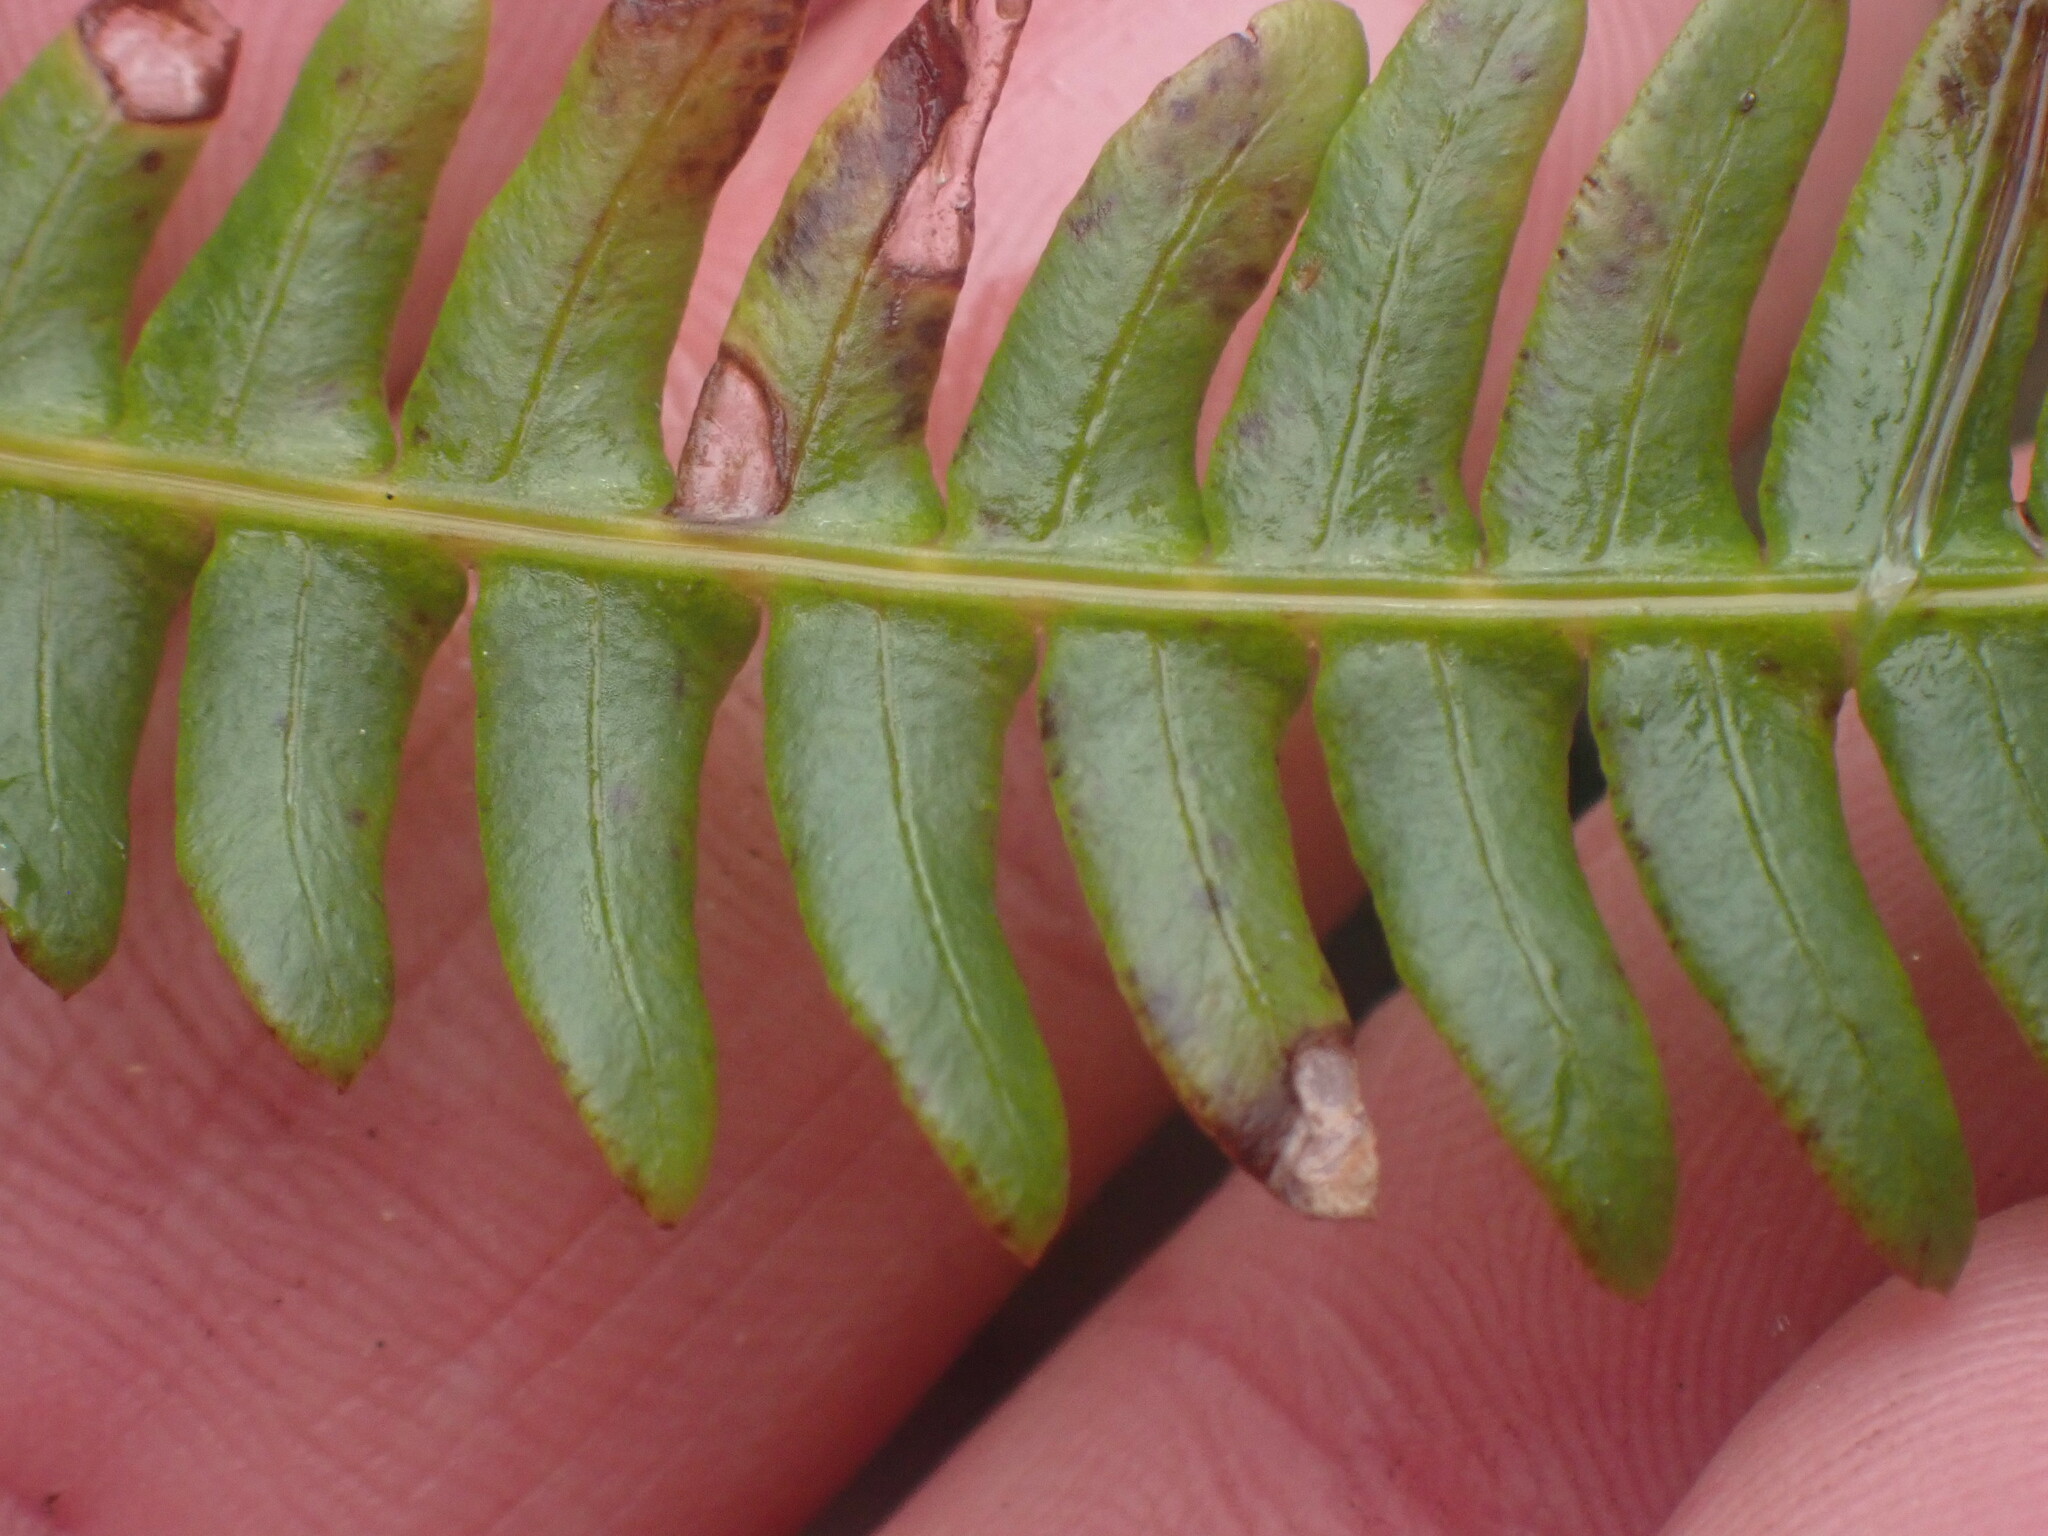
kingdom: Plantae
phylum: Tracheophyta
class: Polypodiopsida
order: Polypodiales
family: Blechnaceae
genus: Struthiopteris
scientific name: Struthiopteris spicant
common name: Deer fern
